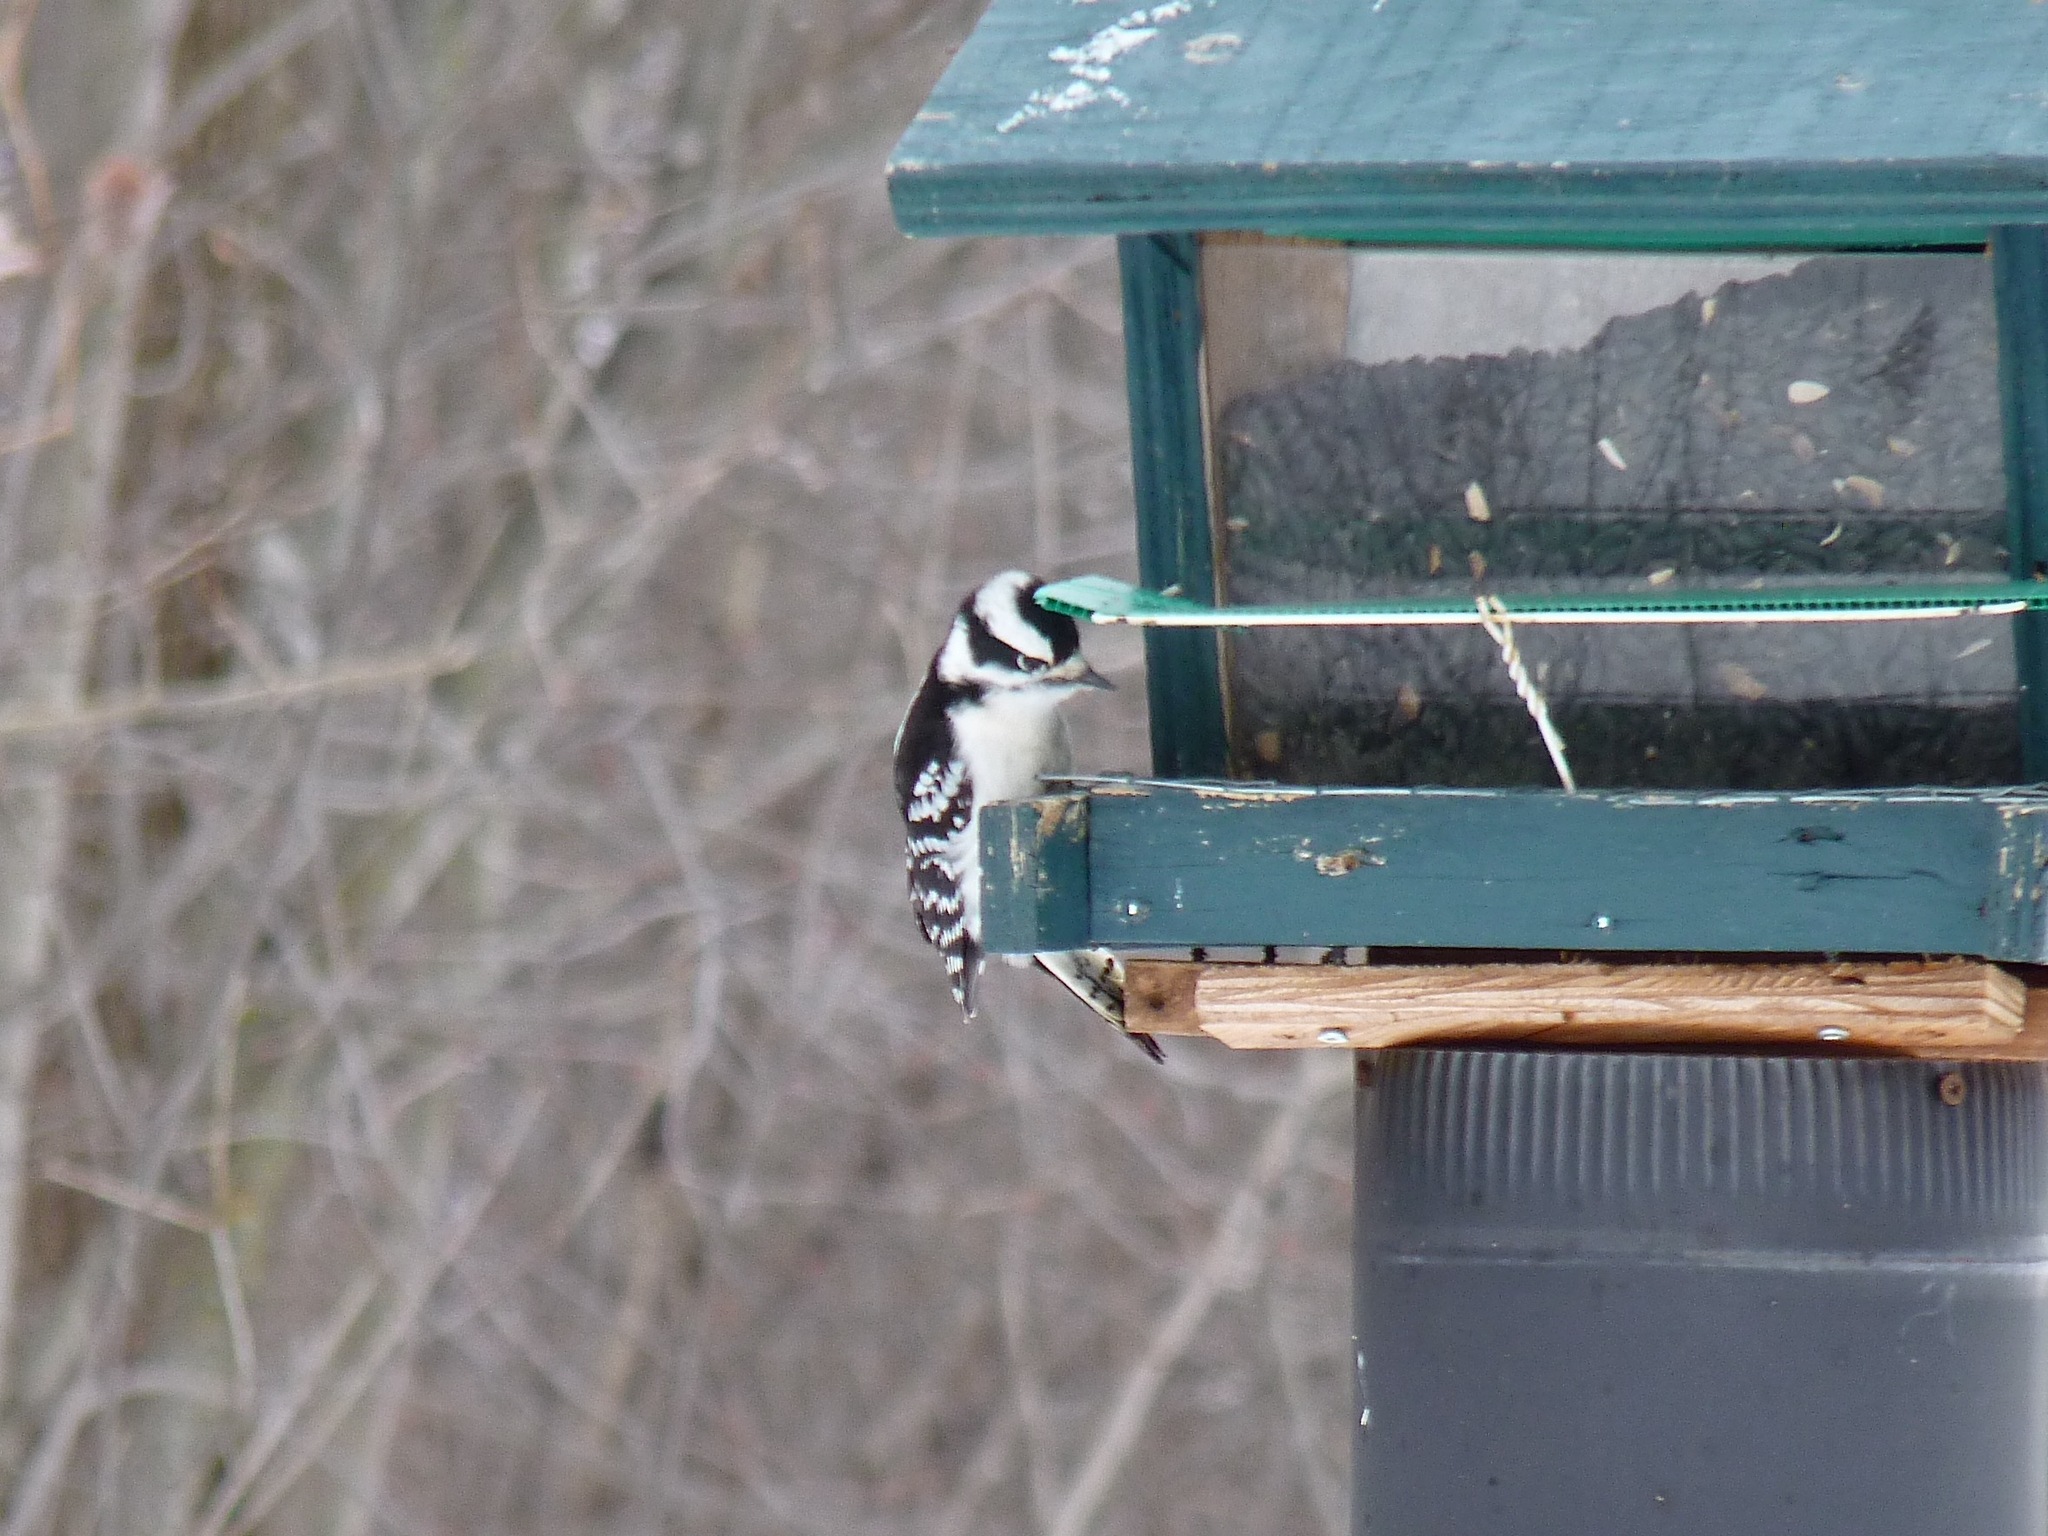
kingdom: Animalia
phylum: Chordata
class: Aves
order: Piciformes
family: Picidae
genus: Dryobates
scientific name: Dryobates pubescens
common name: Downy woodpecker
